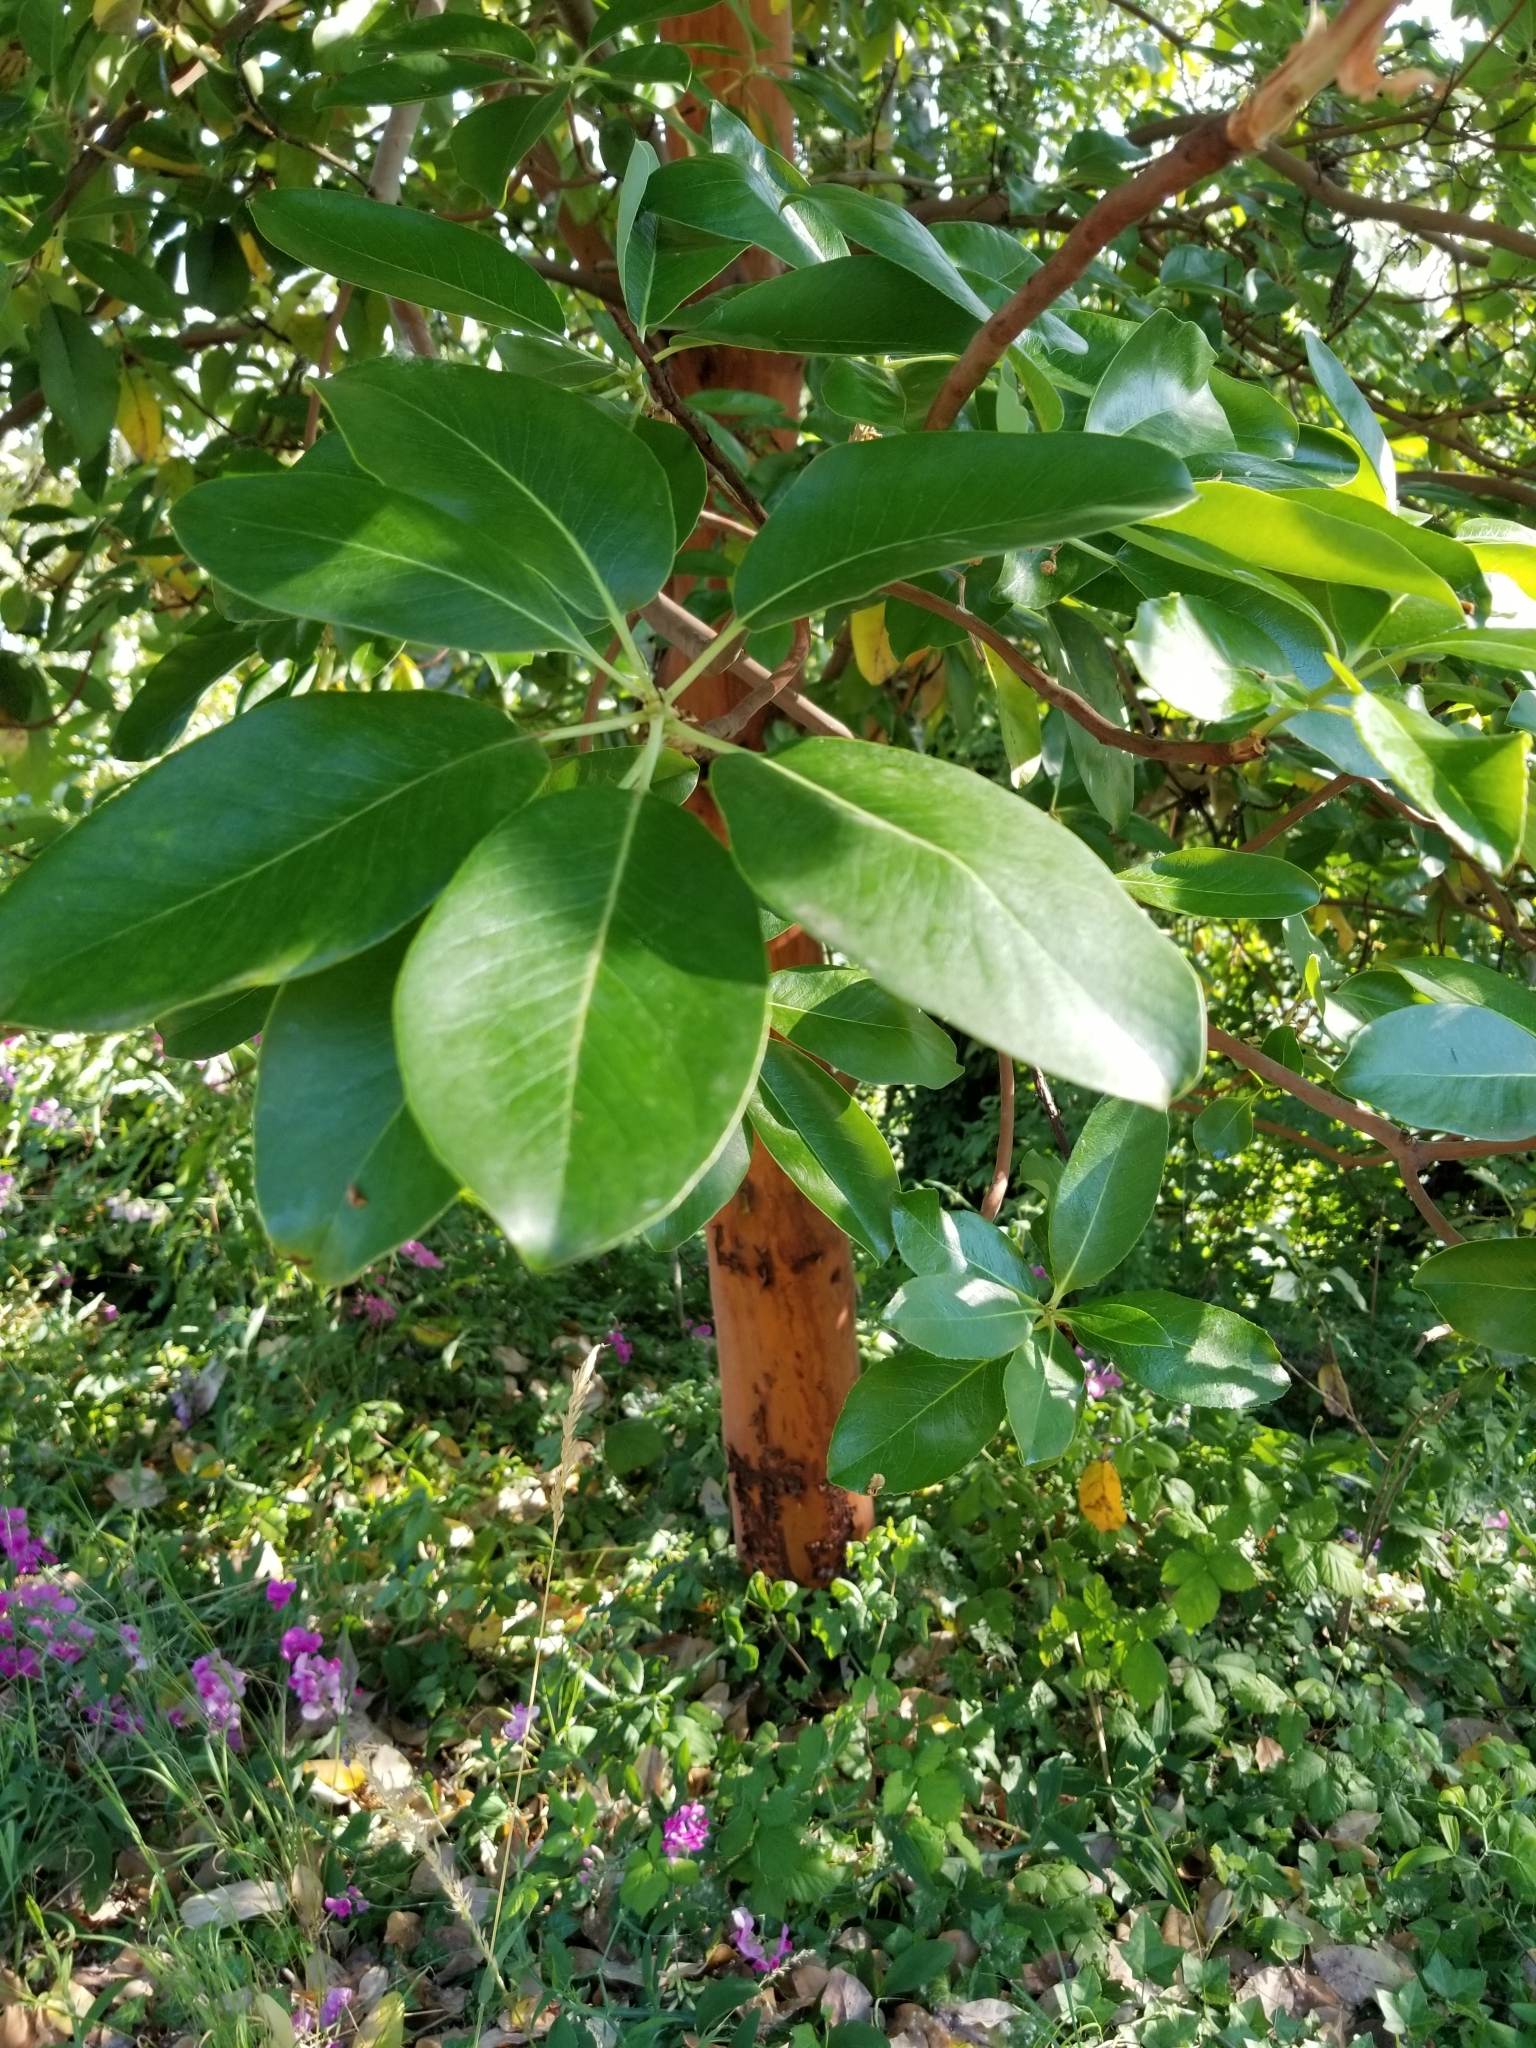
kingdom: Plantae
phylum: Tracheophyta
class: Magnoliopsida
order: Ericales
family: Ericaceae
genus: Arbutus
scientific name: Arbutus menziesii
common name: Pacific madrone
